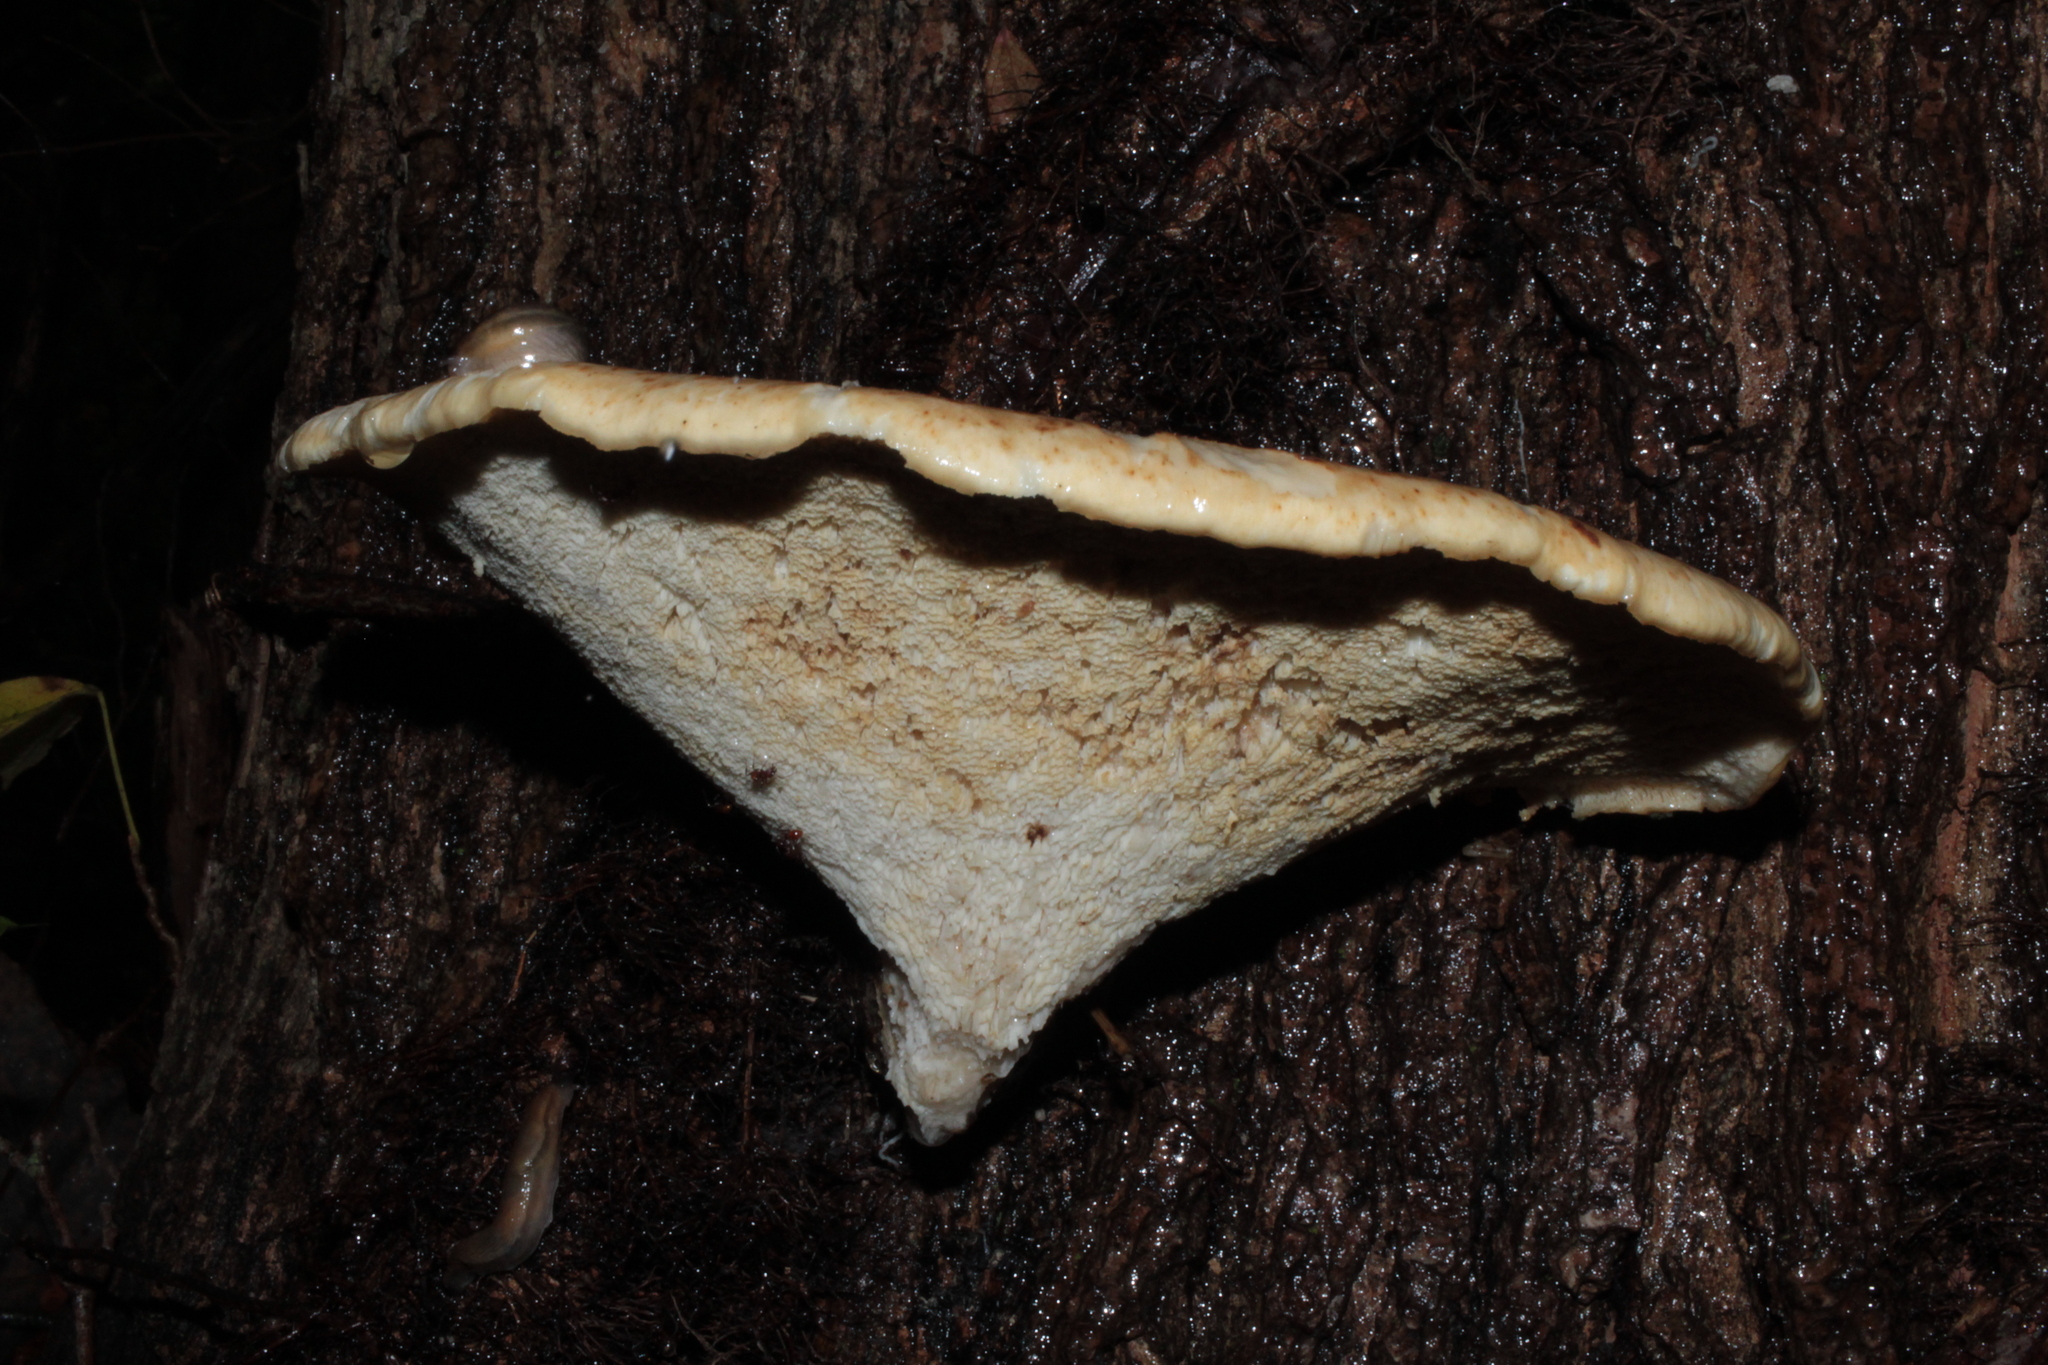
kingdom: Fungi
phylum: Basidiomycota
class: Agaricomycetes
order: Polyporales
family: Polyporaceae
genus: Cerioporus
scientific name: Cerioporus squamosus
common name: Dryad's saddle
